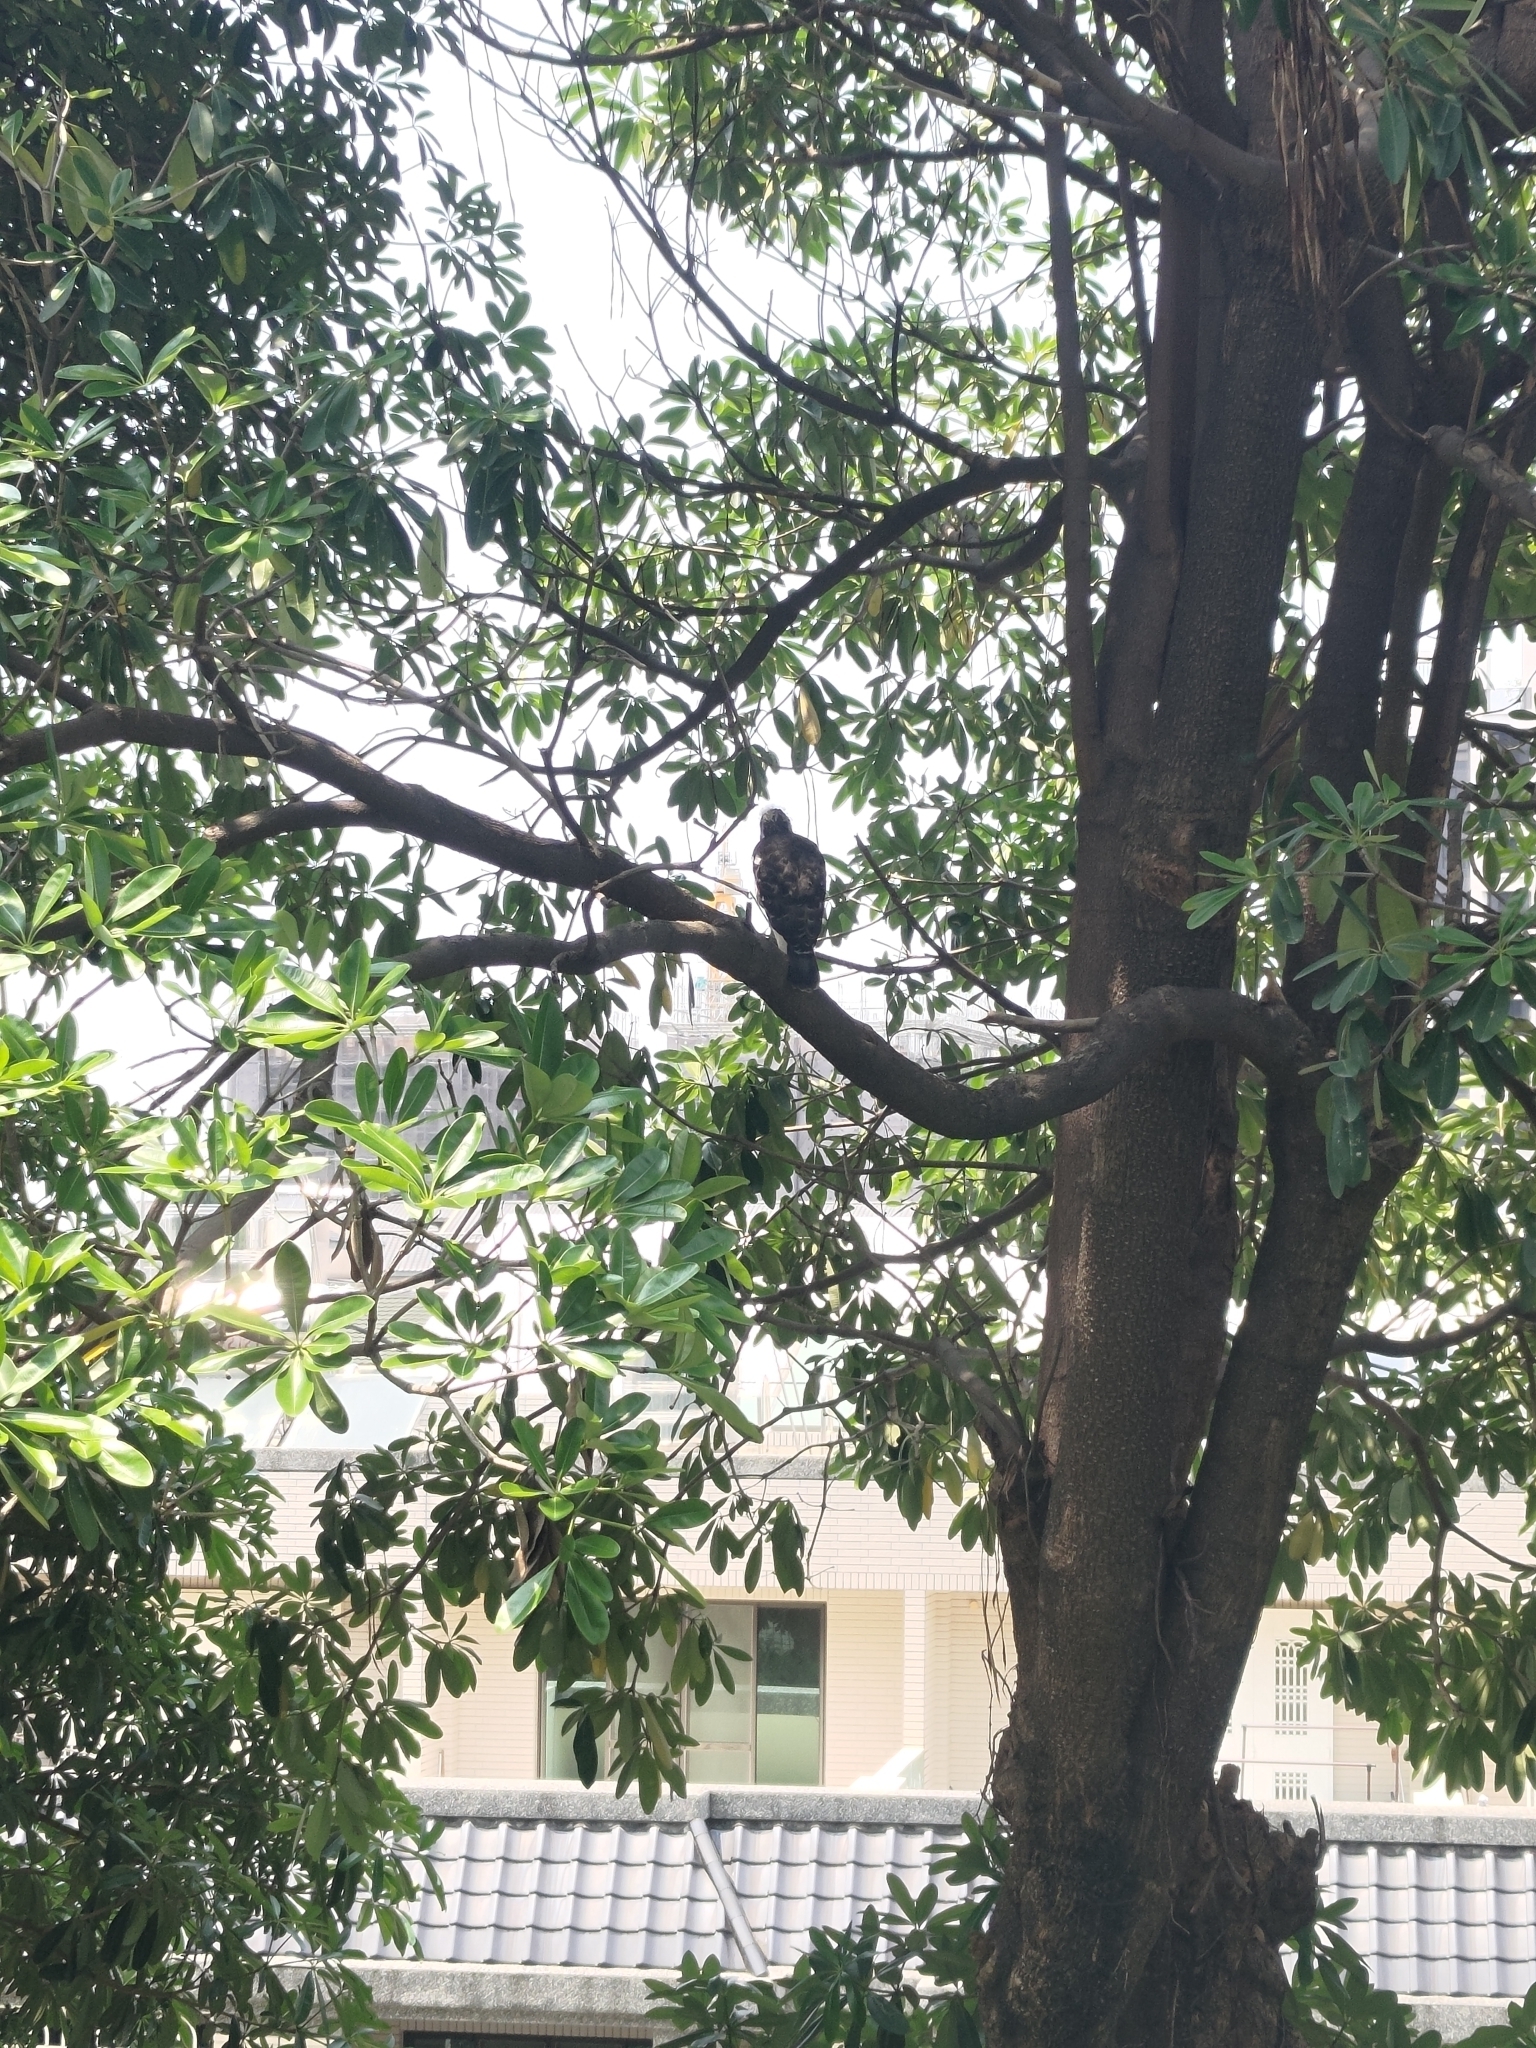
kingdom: Animalia
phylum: Chordata
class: Aves
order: Accipitriformes
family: Accipitridae
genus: Accipiter
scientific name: Accipiter trivirgatus
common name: Crested goshawk
